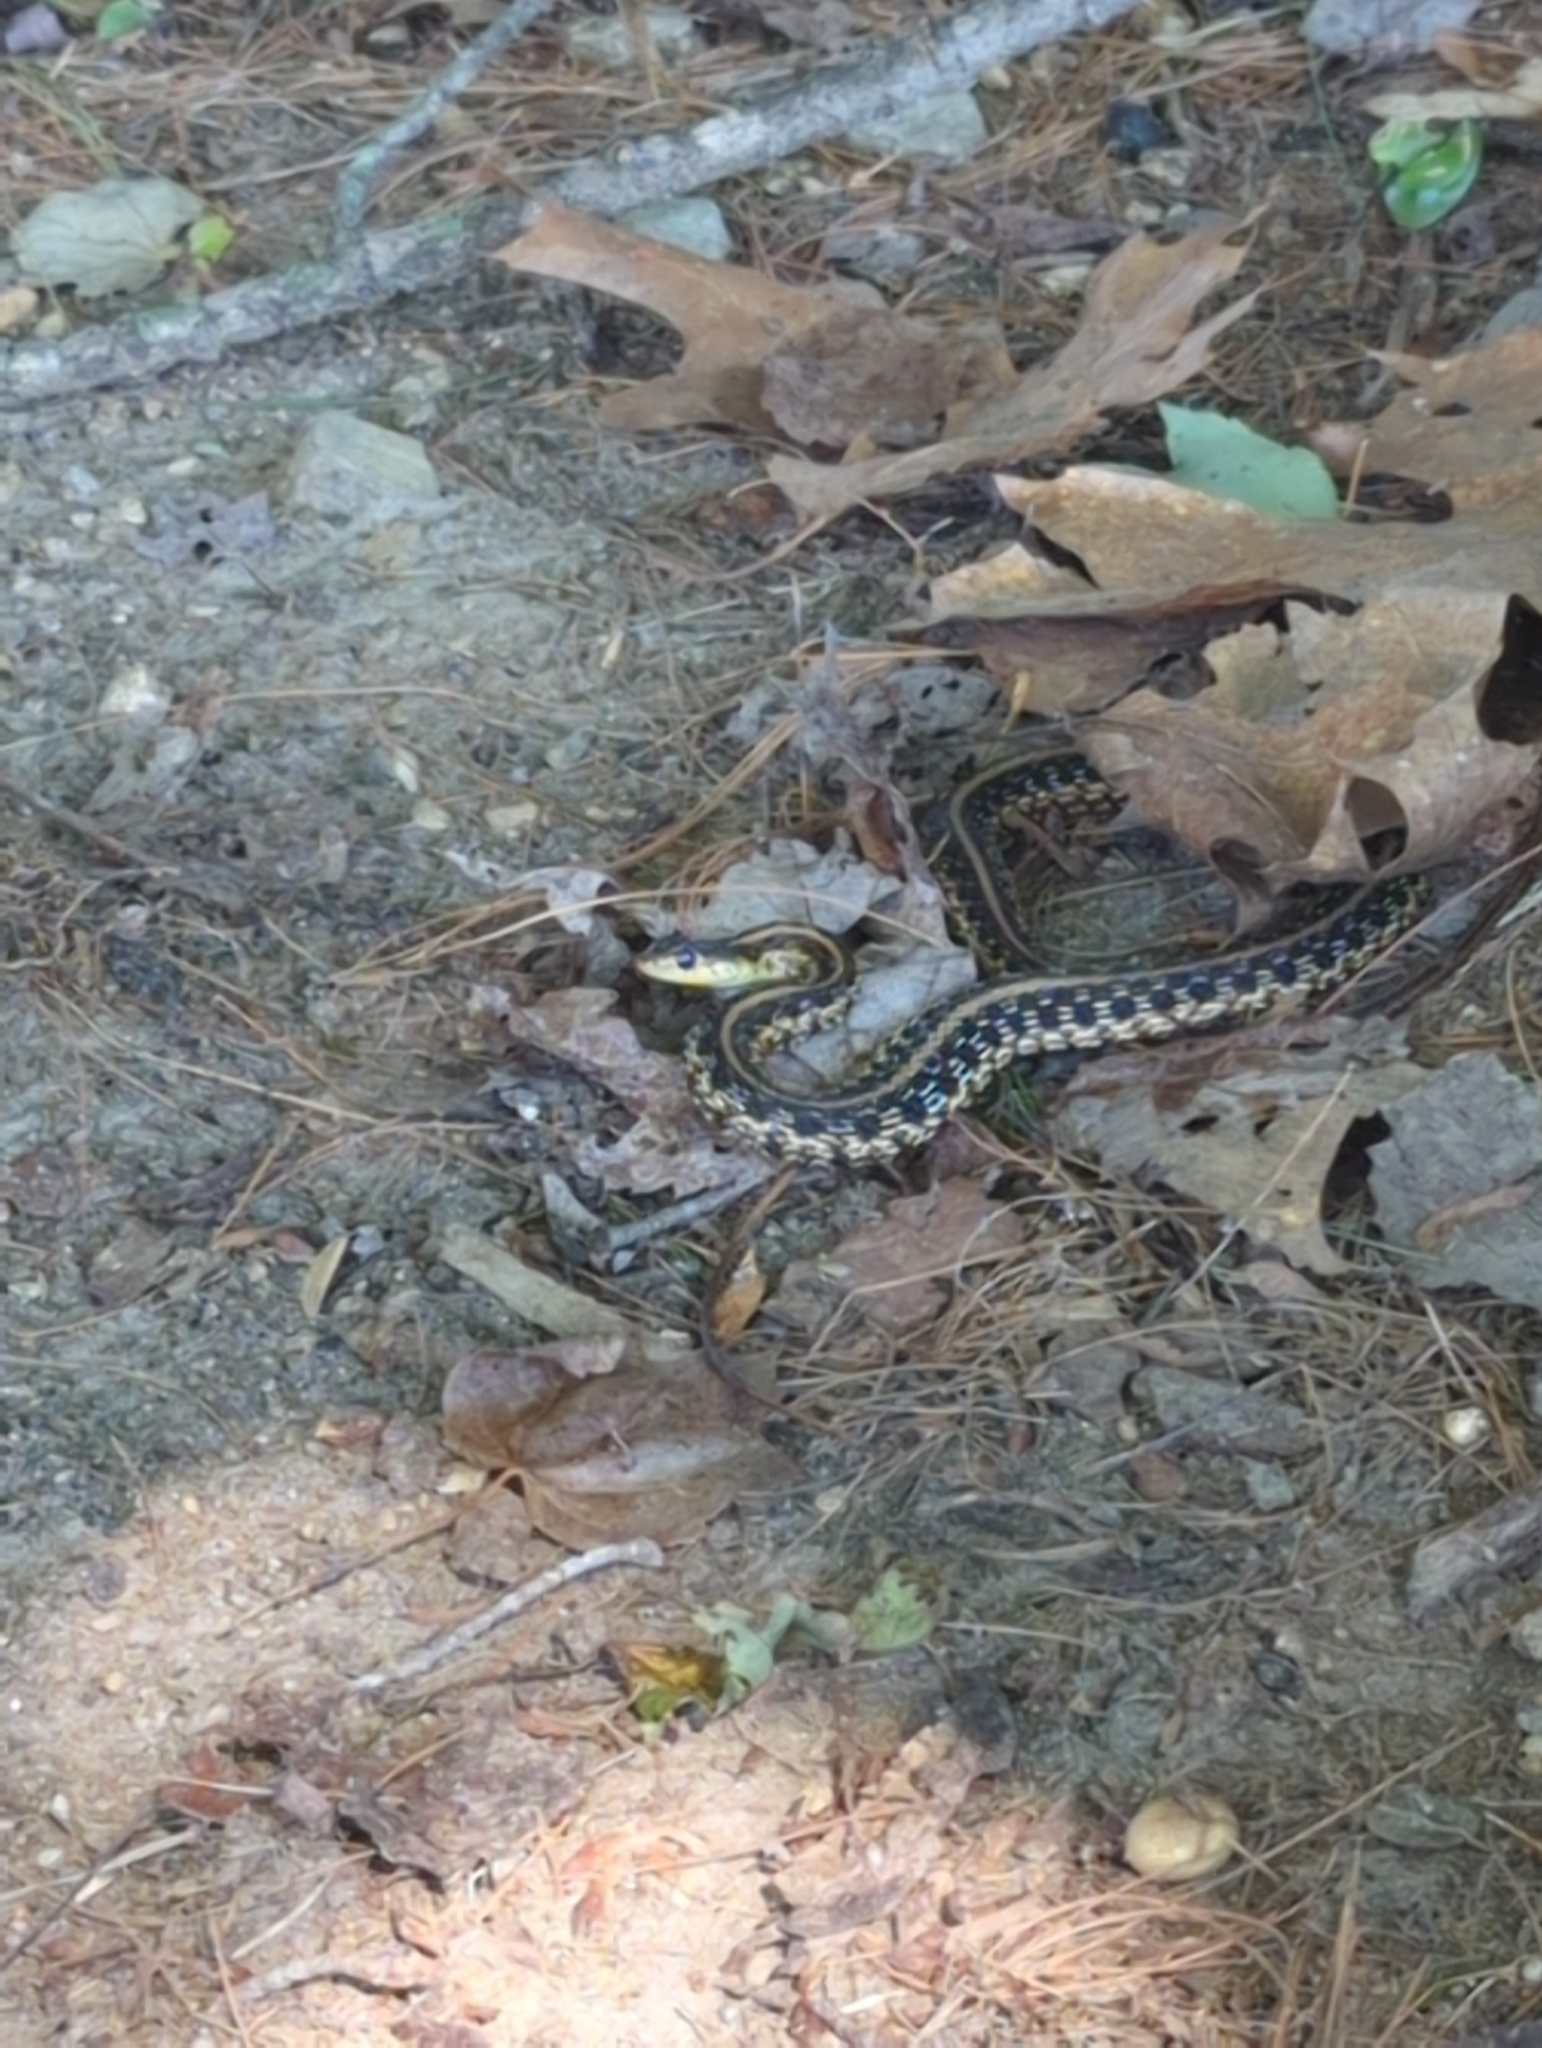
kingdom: Animalia
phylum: Chordata
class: Squamata
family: Colubridae
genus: Thamnophis
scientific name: Thamnophis sirtalis
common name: Common garter snake
